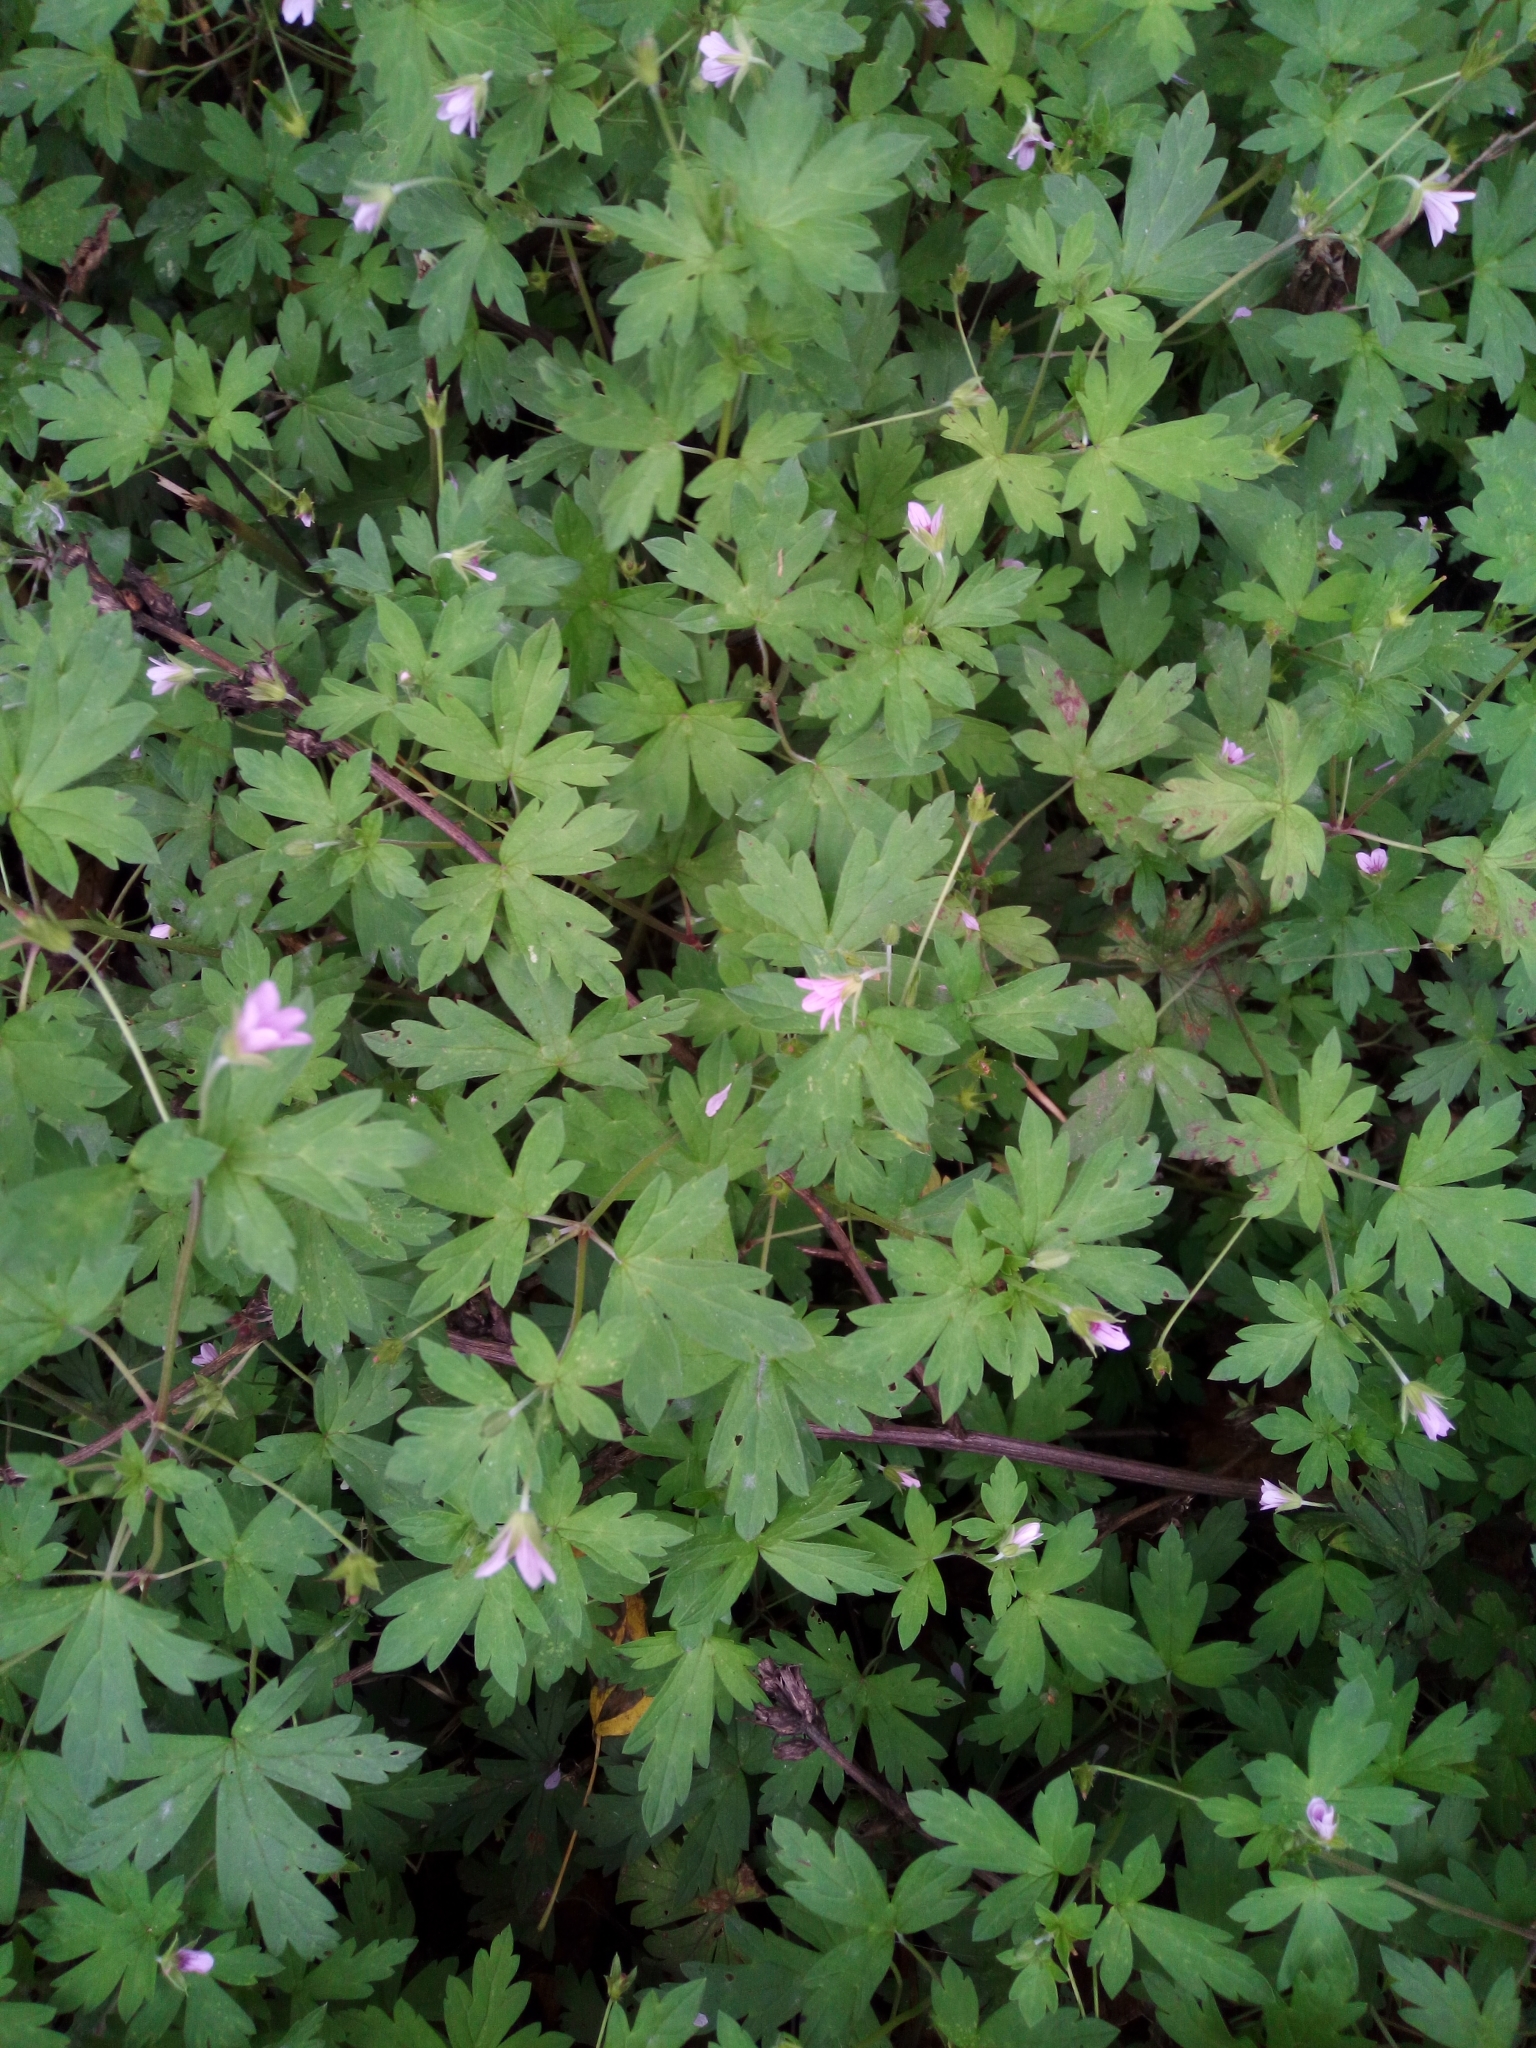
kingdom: Plantae
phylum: Tracheophyta
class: Magnoliopsida
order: Geraniales
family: Geraniaceae
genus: Geranium
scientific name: Geranium sibiricum
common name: Siberian crane's-bill
